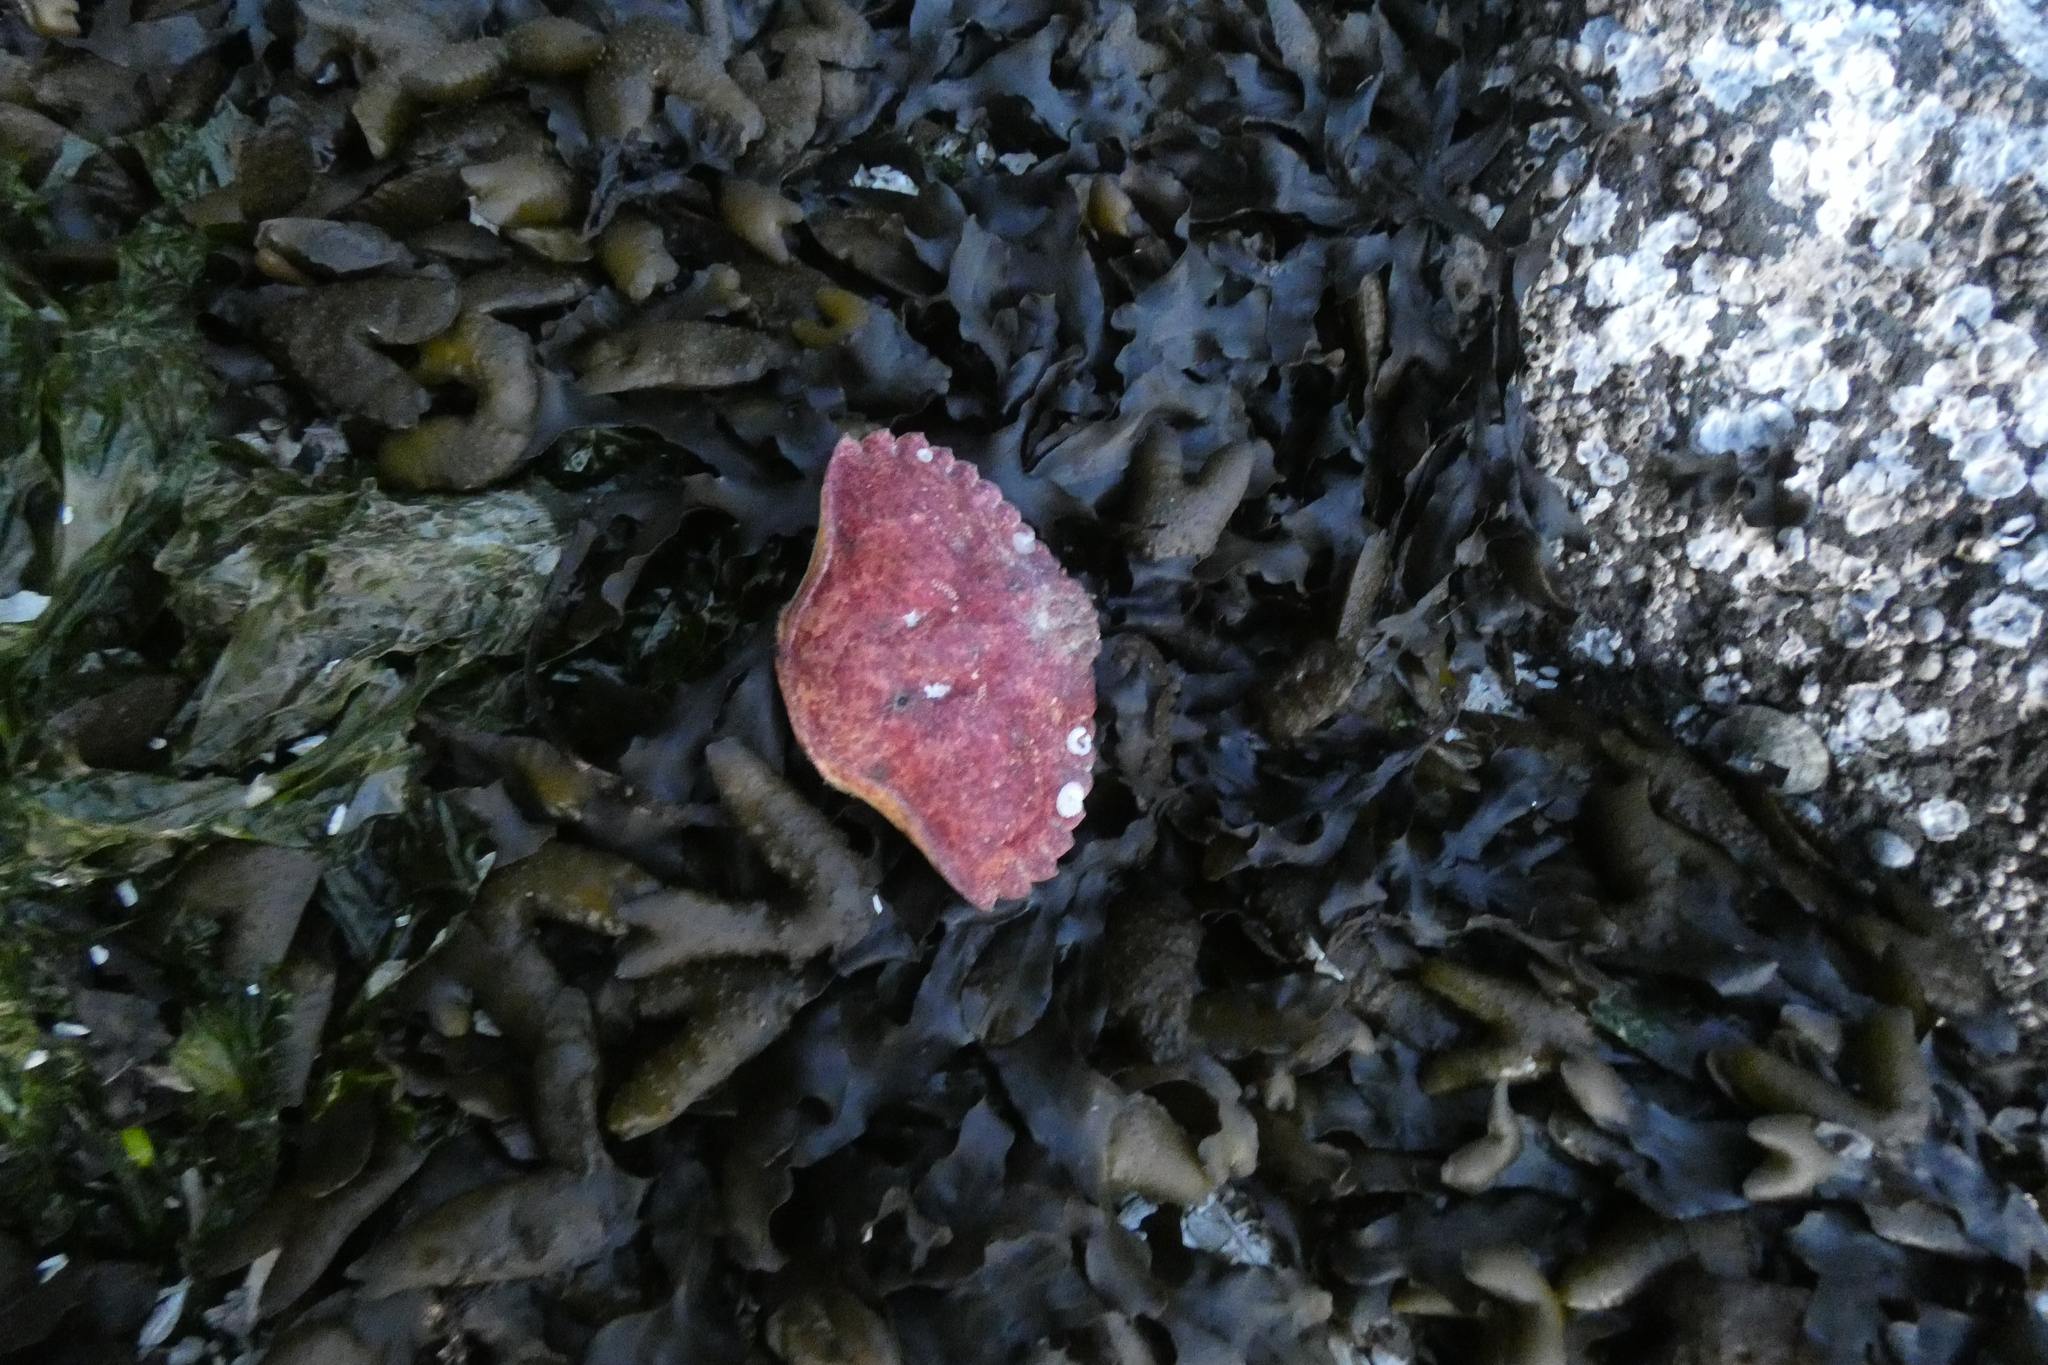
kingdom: Animalia
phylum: Arthropoda
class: Malacostraca
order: Decapoda
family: Cancridae
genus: Cancer
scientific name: Cancer productus
